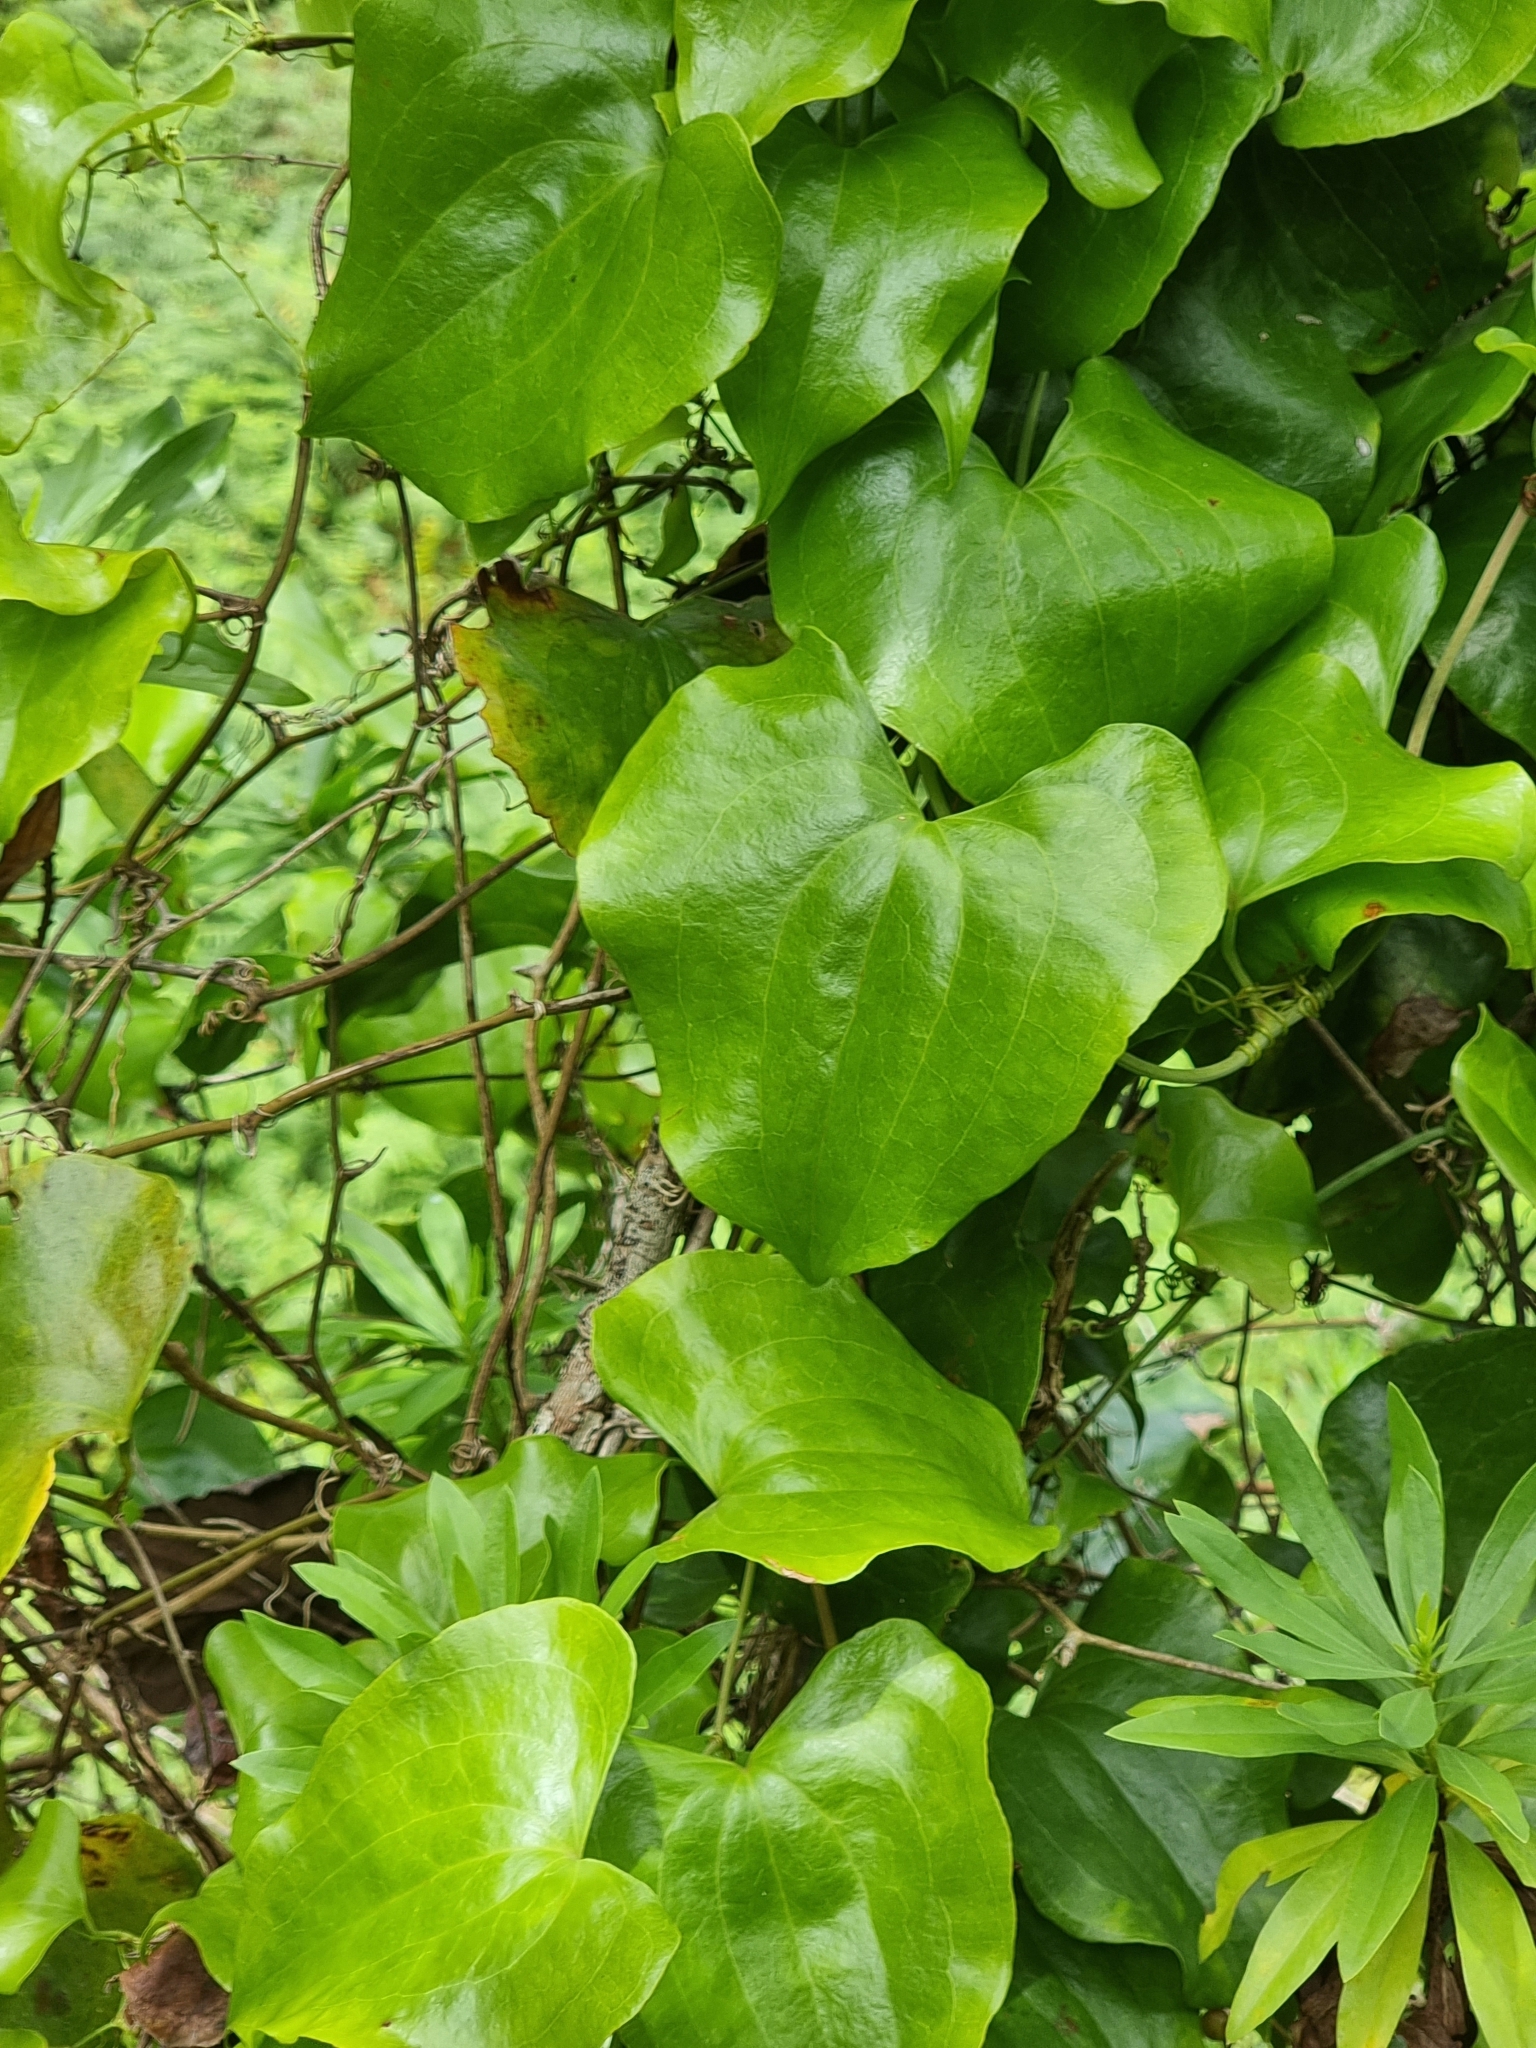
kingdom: Plantae
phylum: Tracheophyta
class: Liliopsida
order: Liliales
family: Smilacaceae
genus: Smilax
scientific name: Smilax aspera
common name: Common smilax
